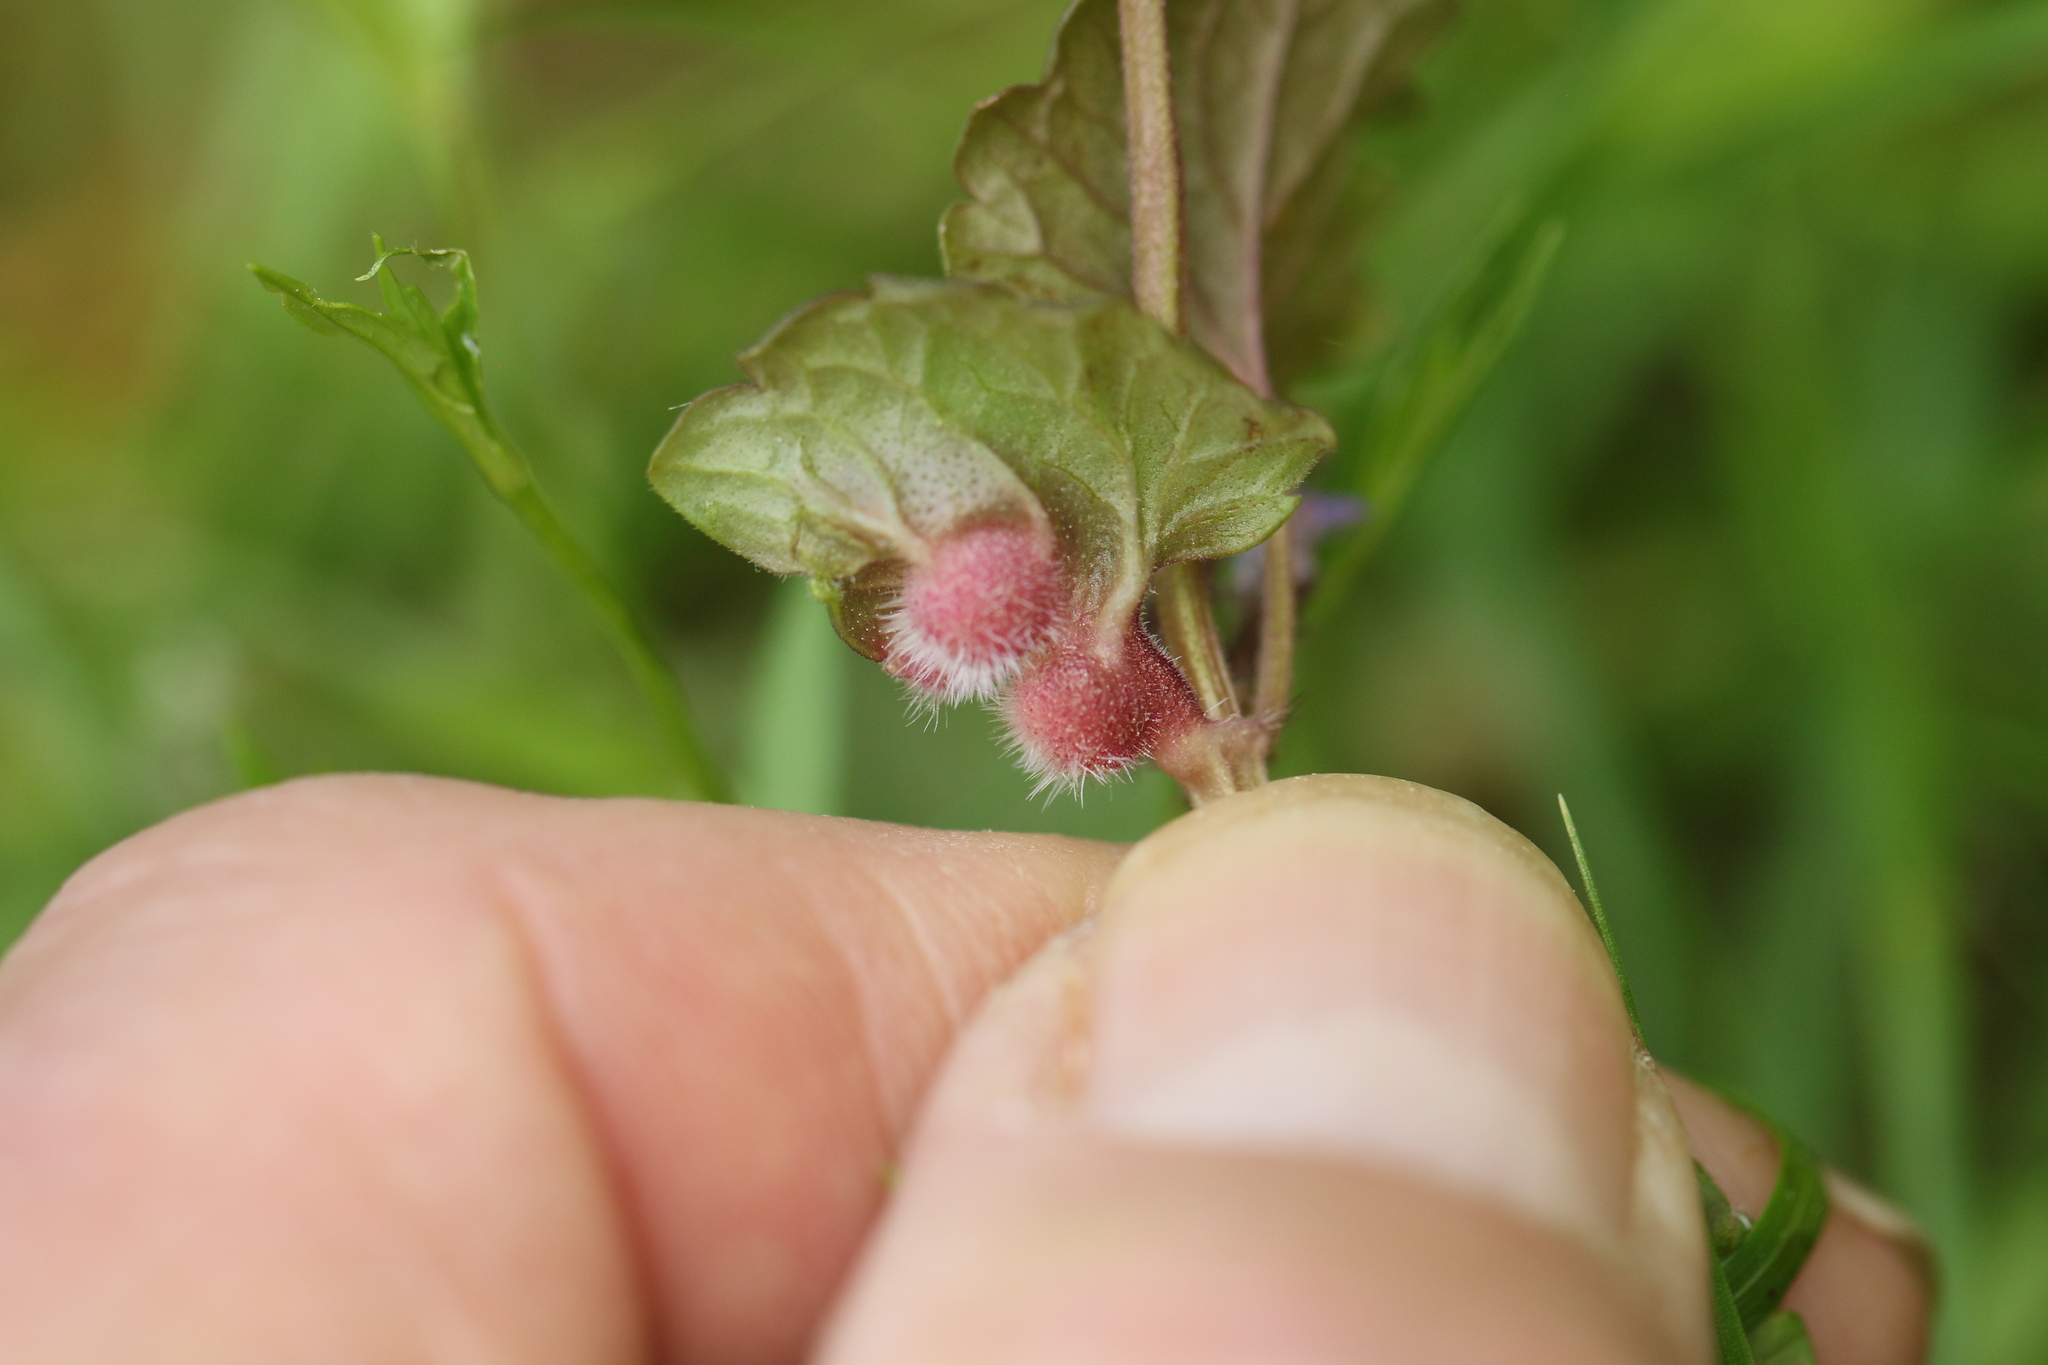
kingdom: Animalia
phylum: Arthropoda
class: Insecta
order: Hymenoptera
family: Cynipidae
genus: Liposthenes
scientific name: Liposthenes glechomae
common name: Gall wasp
